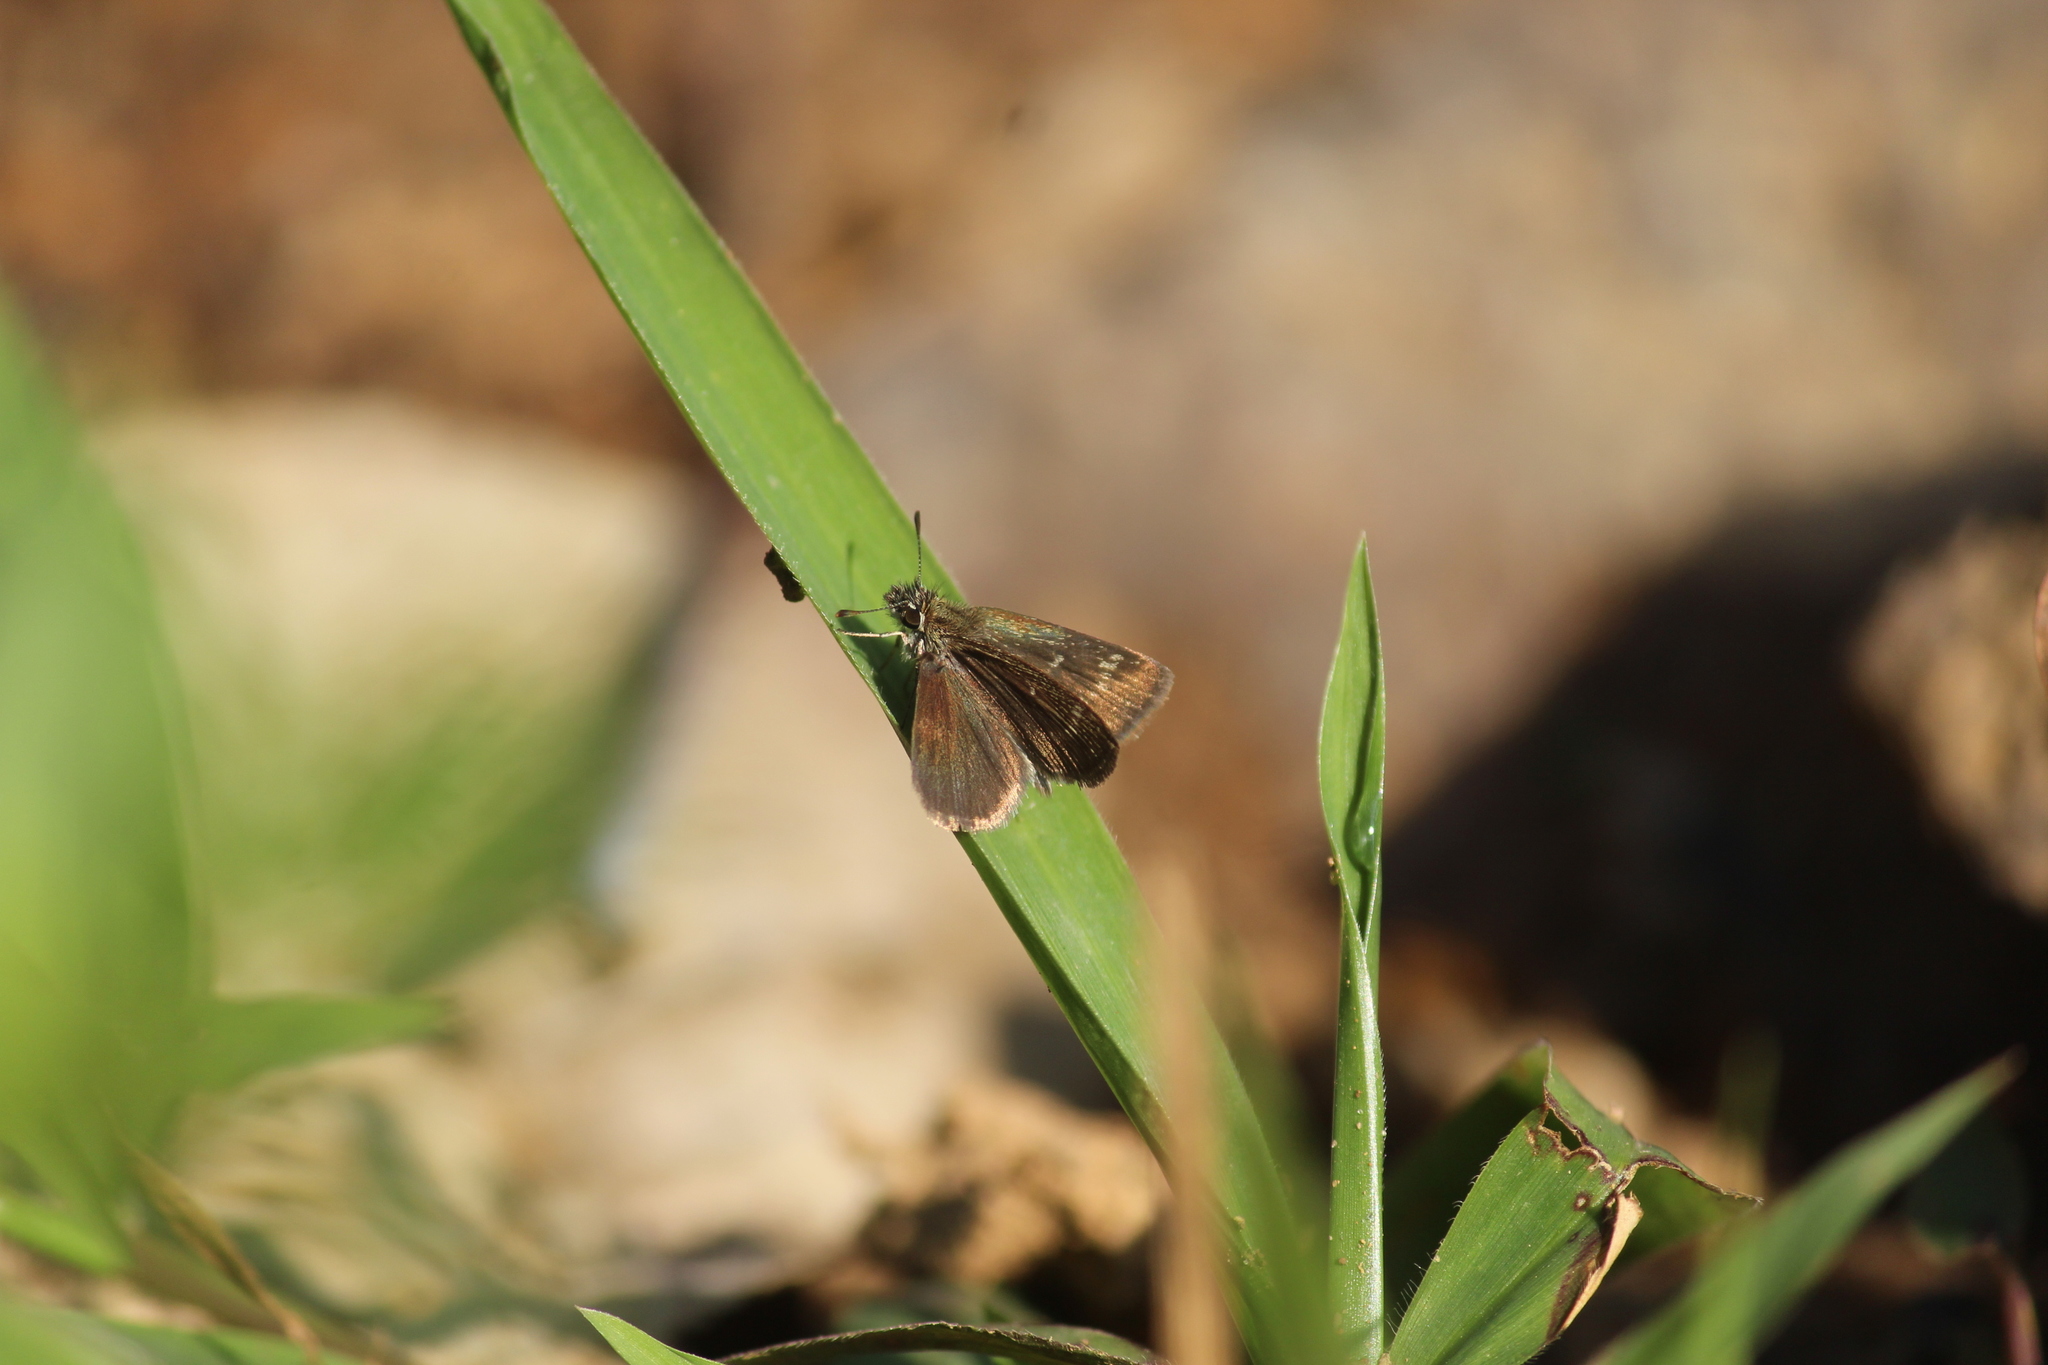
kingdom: Animalia
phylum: Arthropoda
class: Insecta
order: Lepidoptera
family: Hesperiidae
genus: Aeromachus
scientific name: Aeromachus pygmaeus
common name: Pygmy scrub hopper
